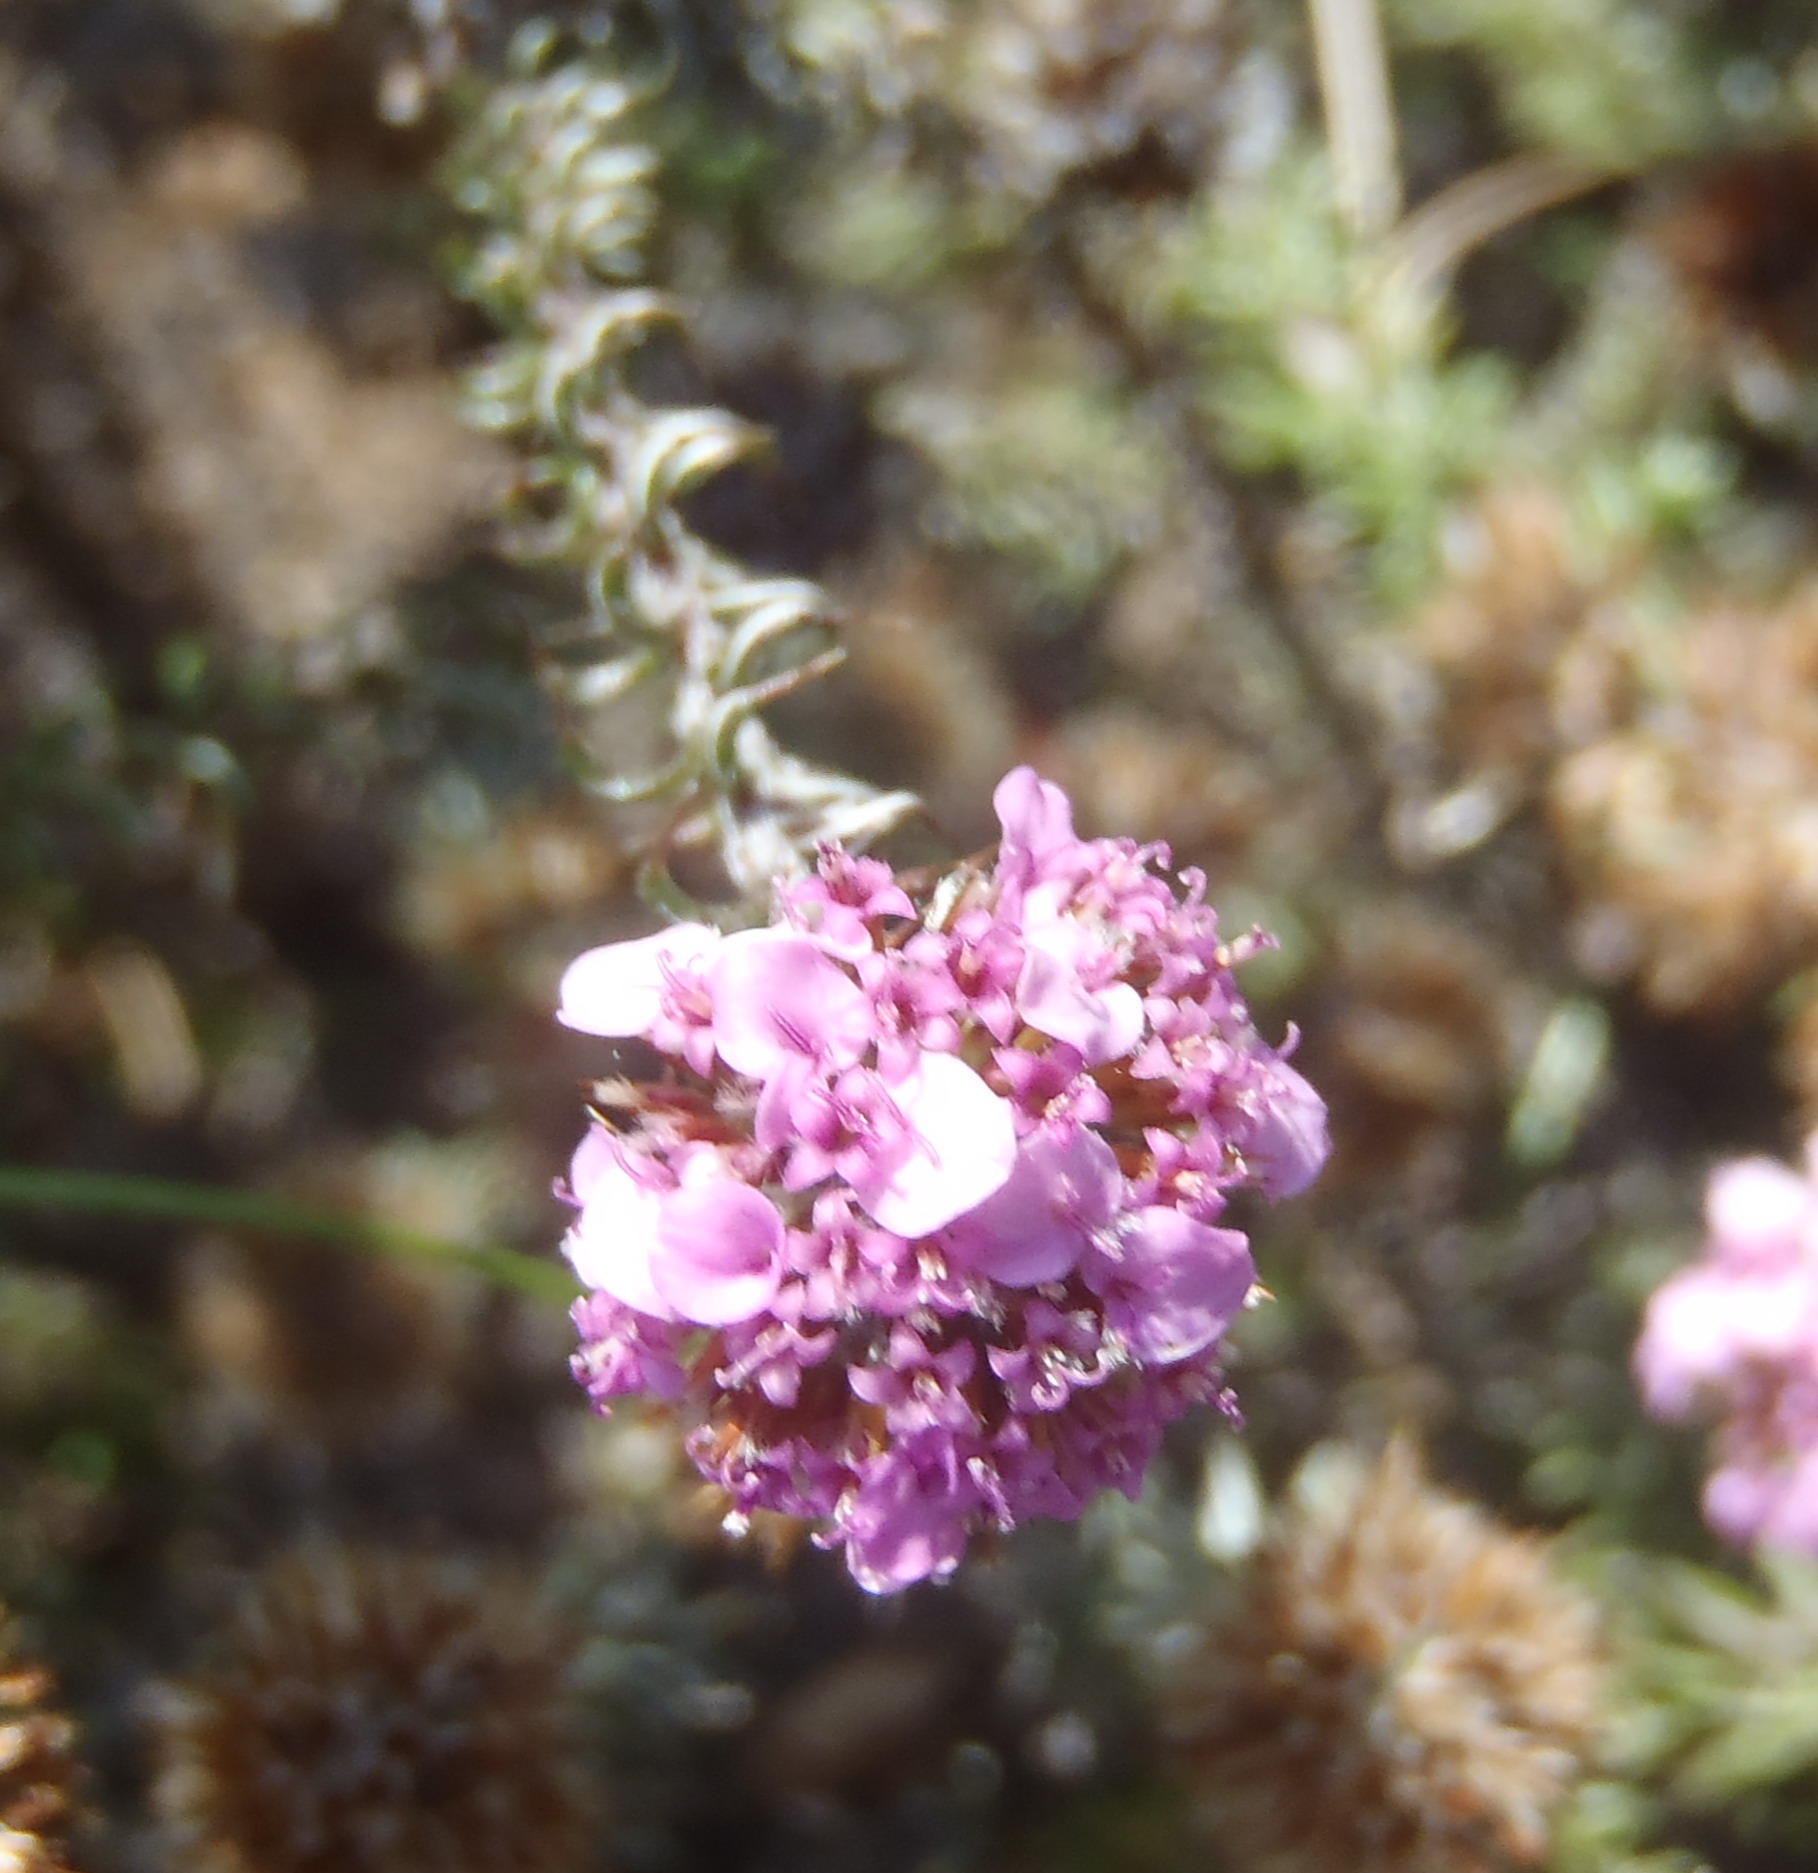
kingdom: Plantae
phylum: Tracheophyta
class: Magnoliopsida
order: Asterales
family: Asteraceae
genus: Disparago
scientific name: Disparago tortilis
